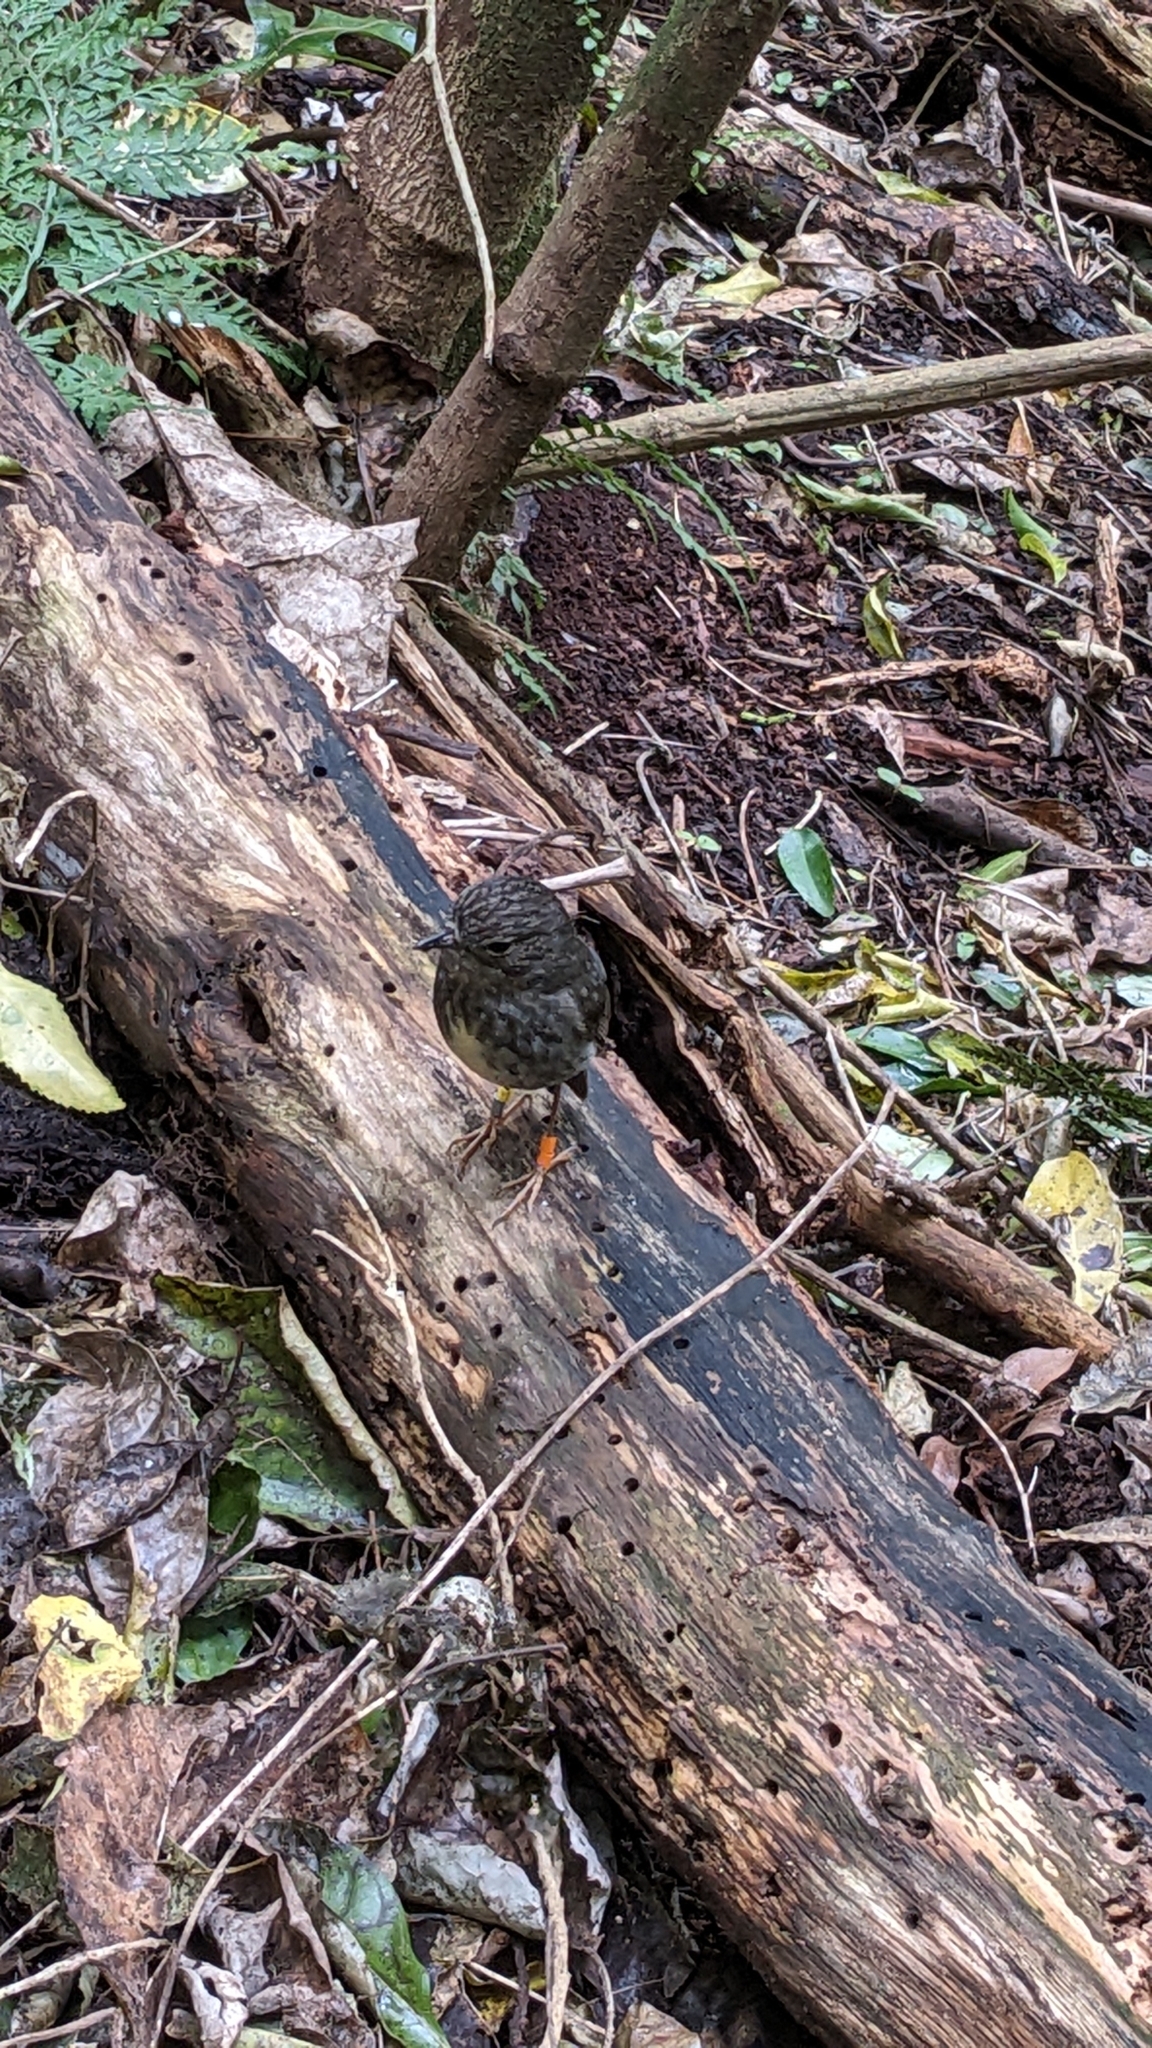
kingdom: Animalia
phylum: Chordata
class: Aves
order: Passeriformes
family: Petroicidae
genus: Petroica
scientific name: Petroica australis
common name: New zealand robin
